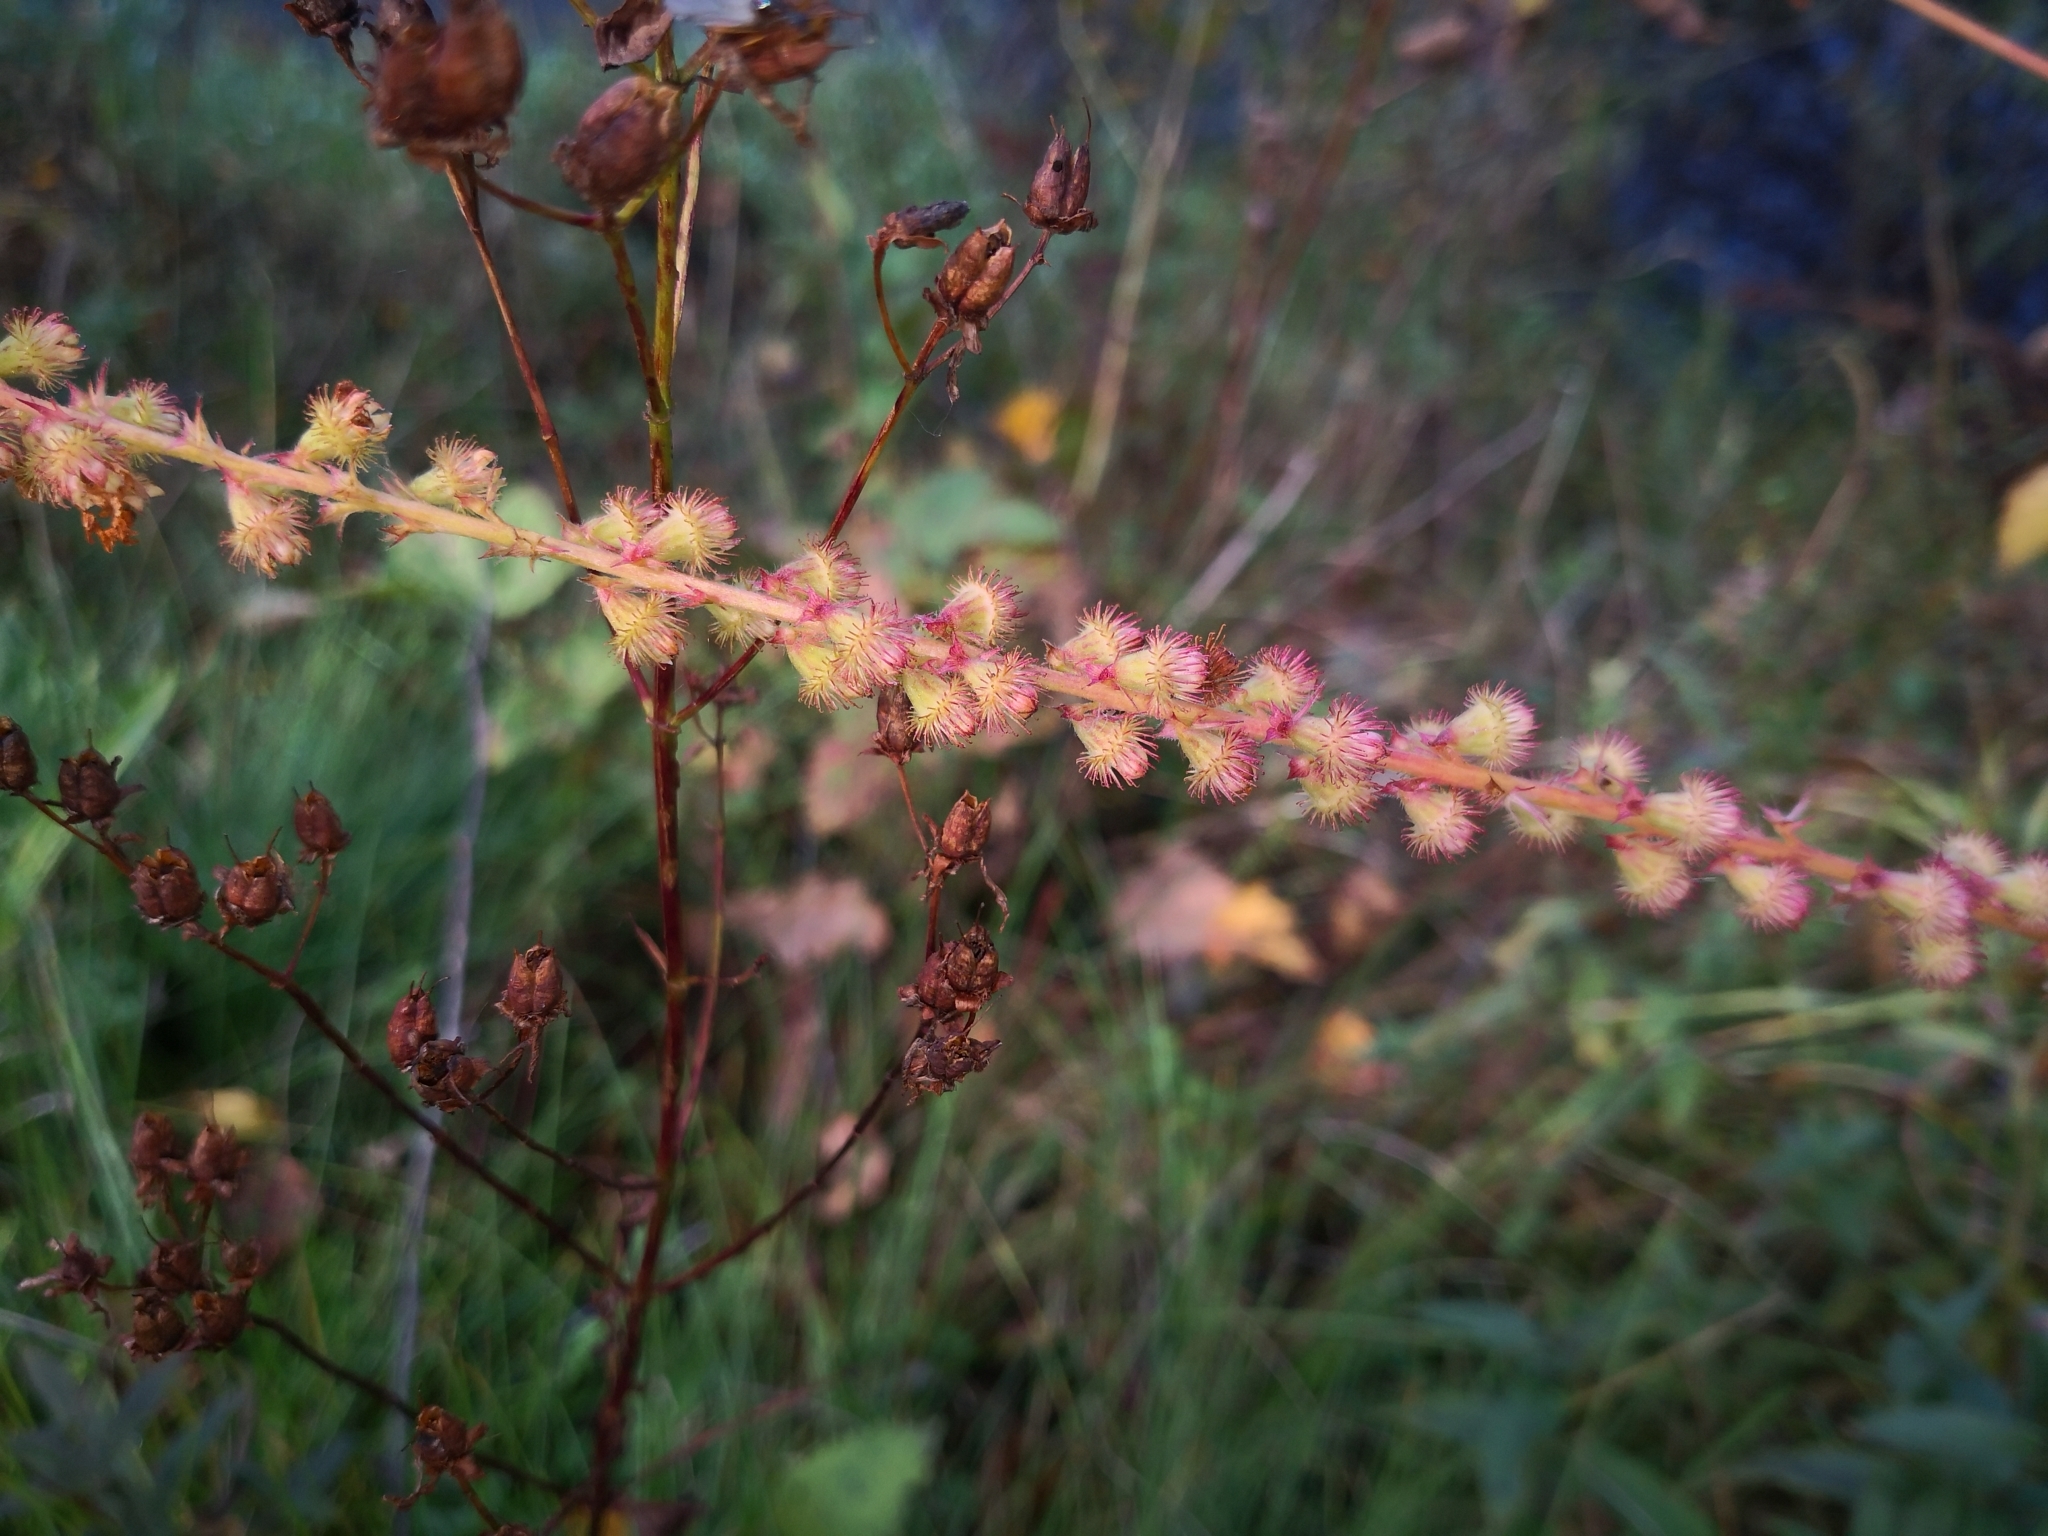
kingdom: Plantae
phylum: Tracheophyta
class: Magnoliopsida
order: Rosales
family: Rosaceae
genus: Agrimonia
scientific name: Agrimonia procera
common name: Fragrant agrimony
